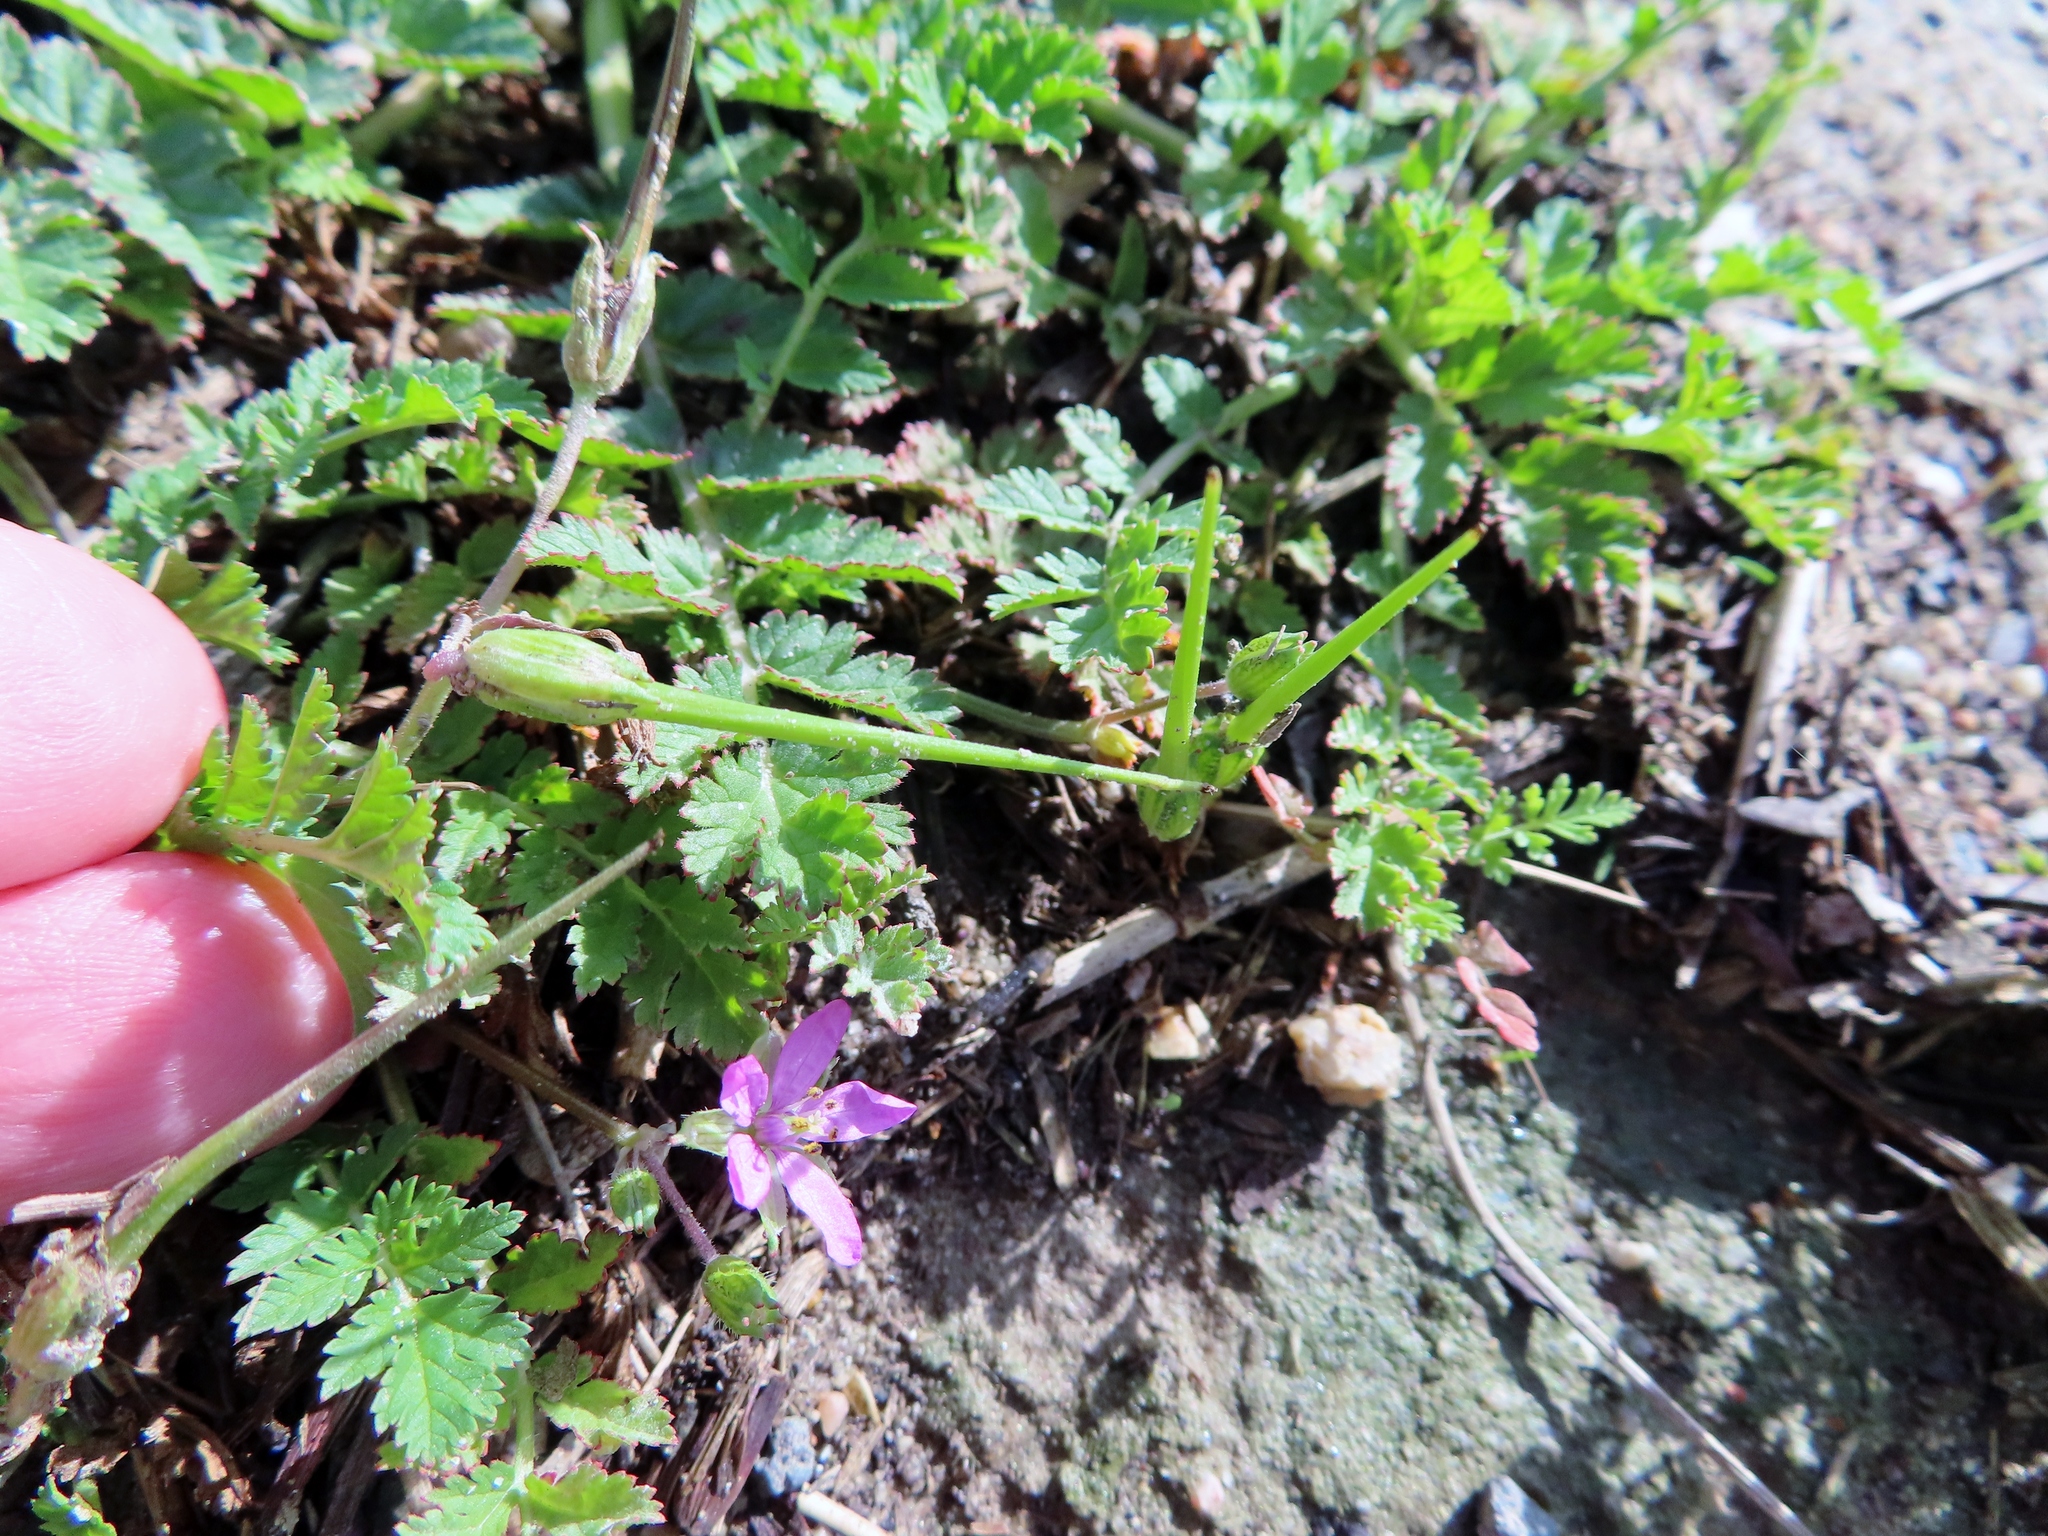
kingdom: Plantae
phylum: Tracheophyta
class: Magnoliopsida
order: Geraniales
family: Geraniaceae
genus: Erodium
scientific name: Erodium moschatum
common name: Musk stork's-bill
